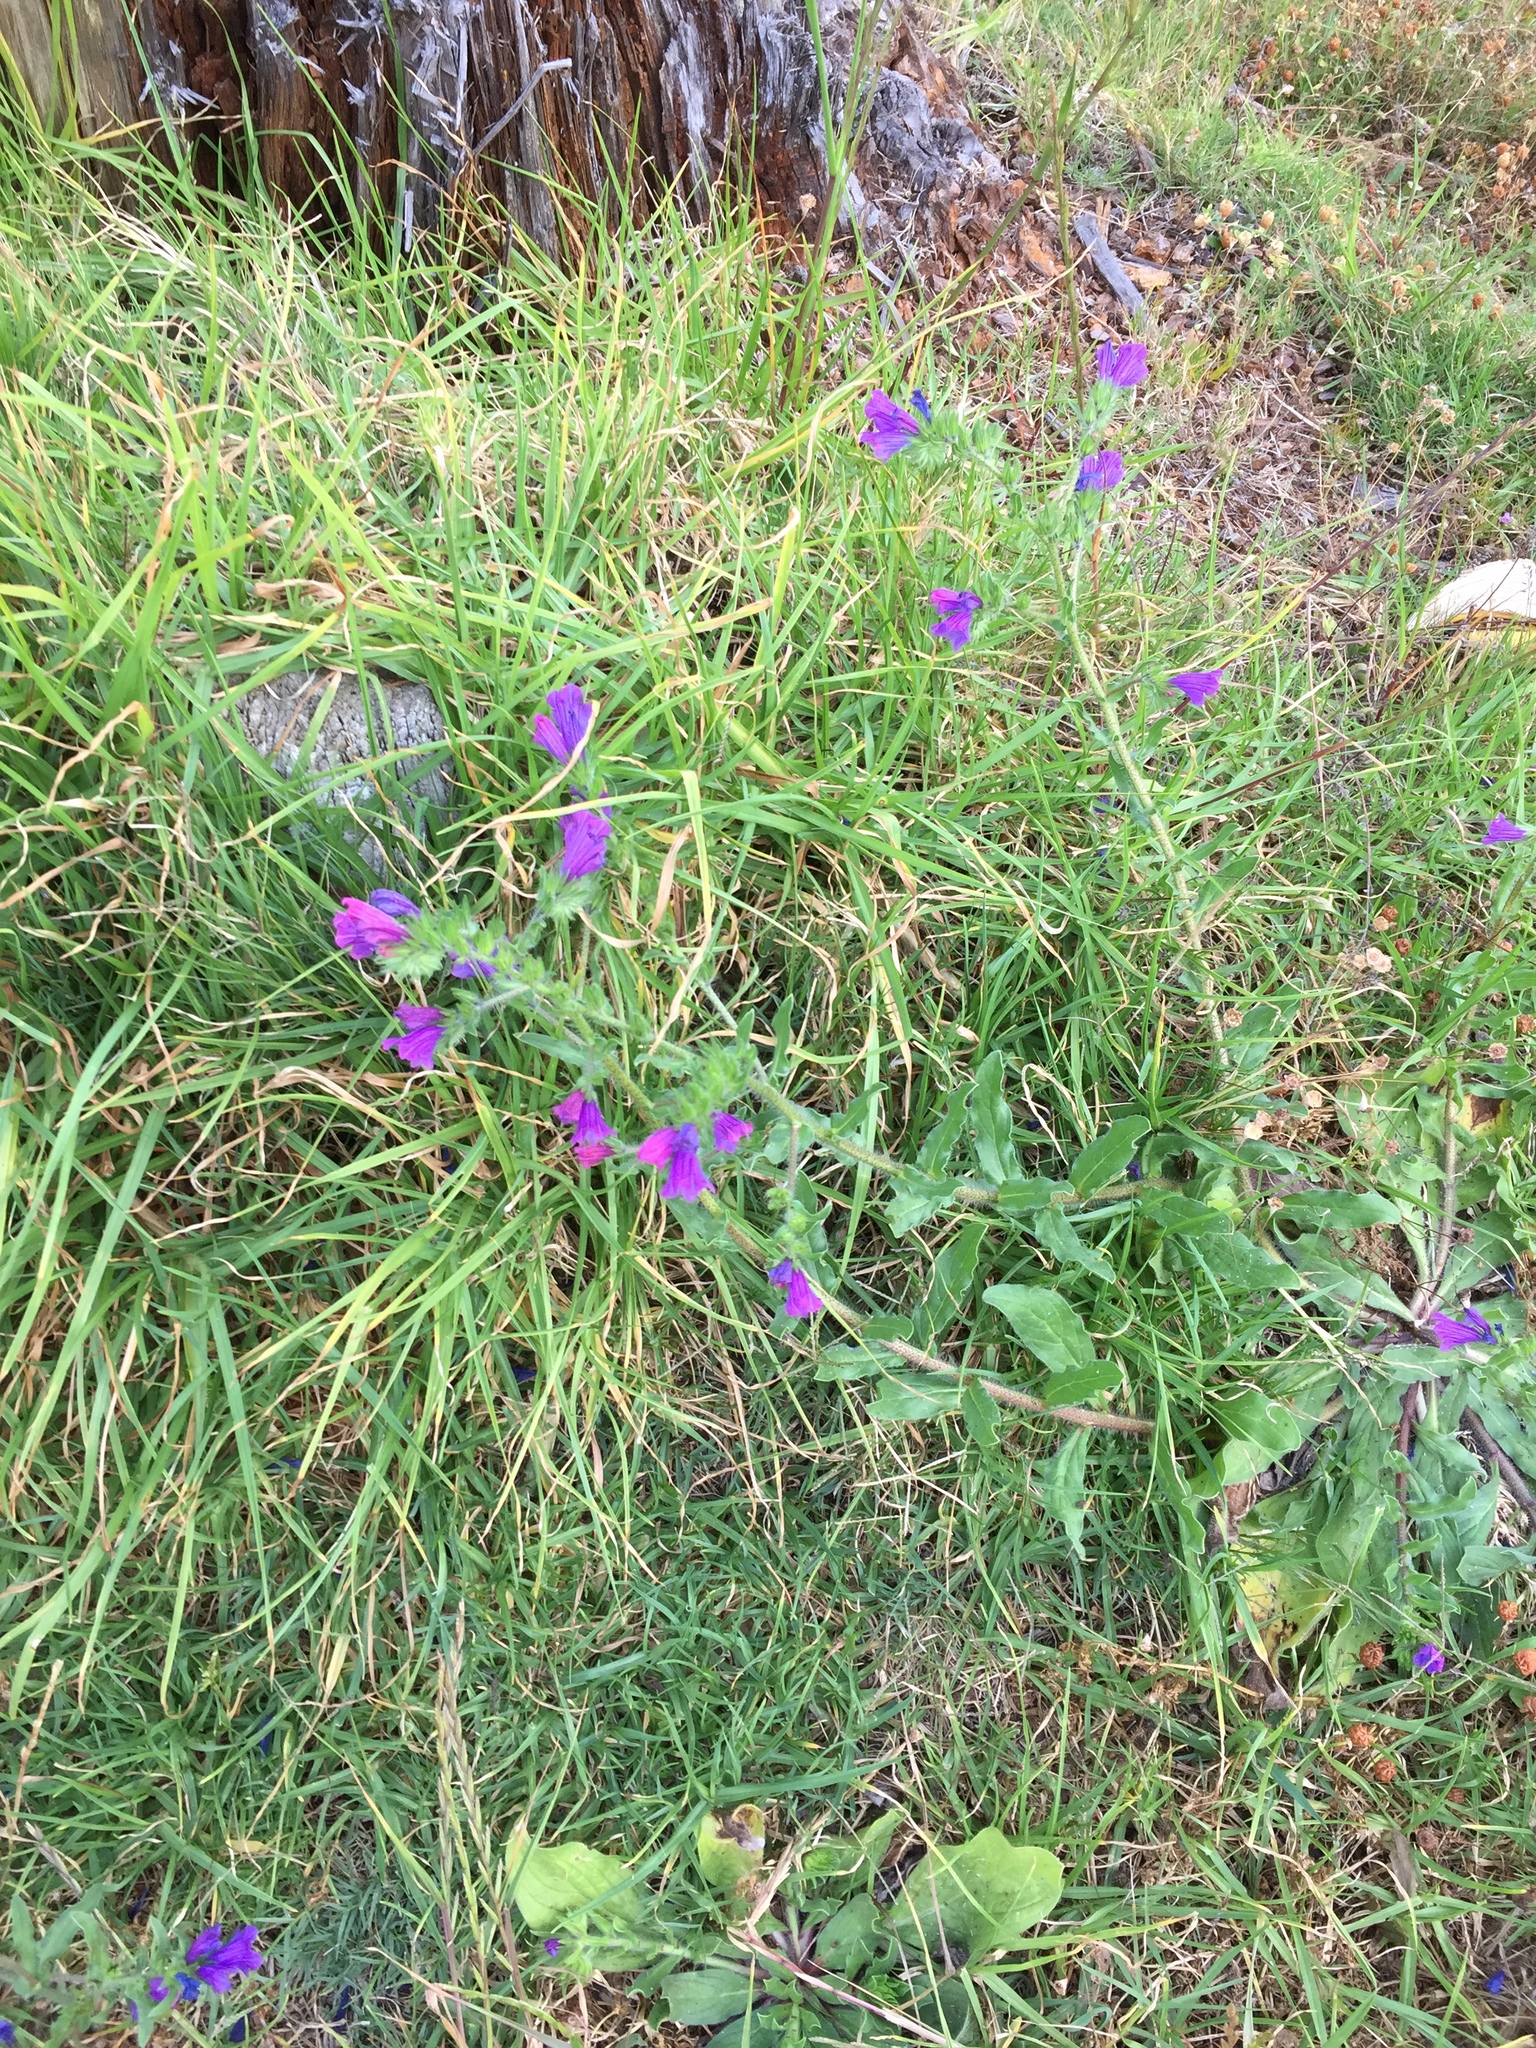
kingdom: Plantae
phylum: Tracheophyta
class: Magnoliopsida
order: Boraginales
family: Boraginaceae
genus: Echium
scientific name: Echium plantagineum
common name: Purple viper's-bugloss
